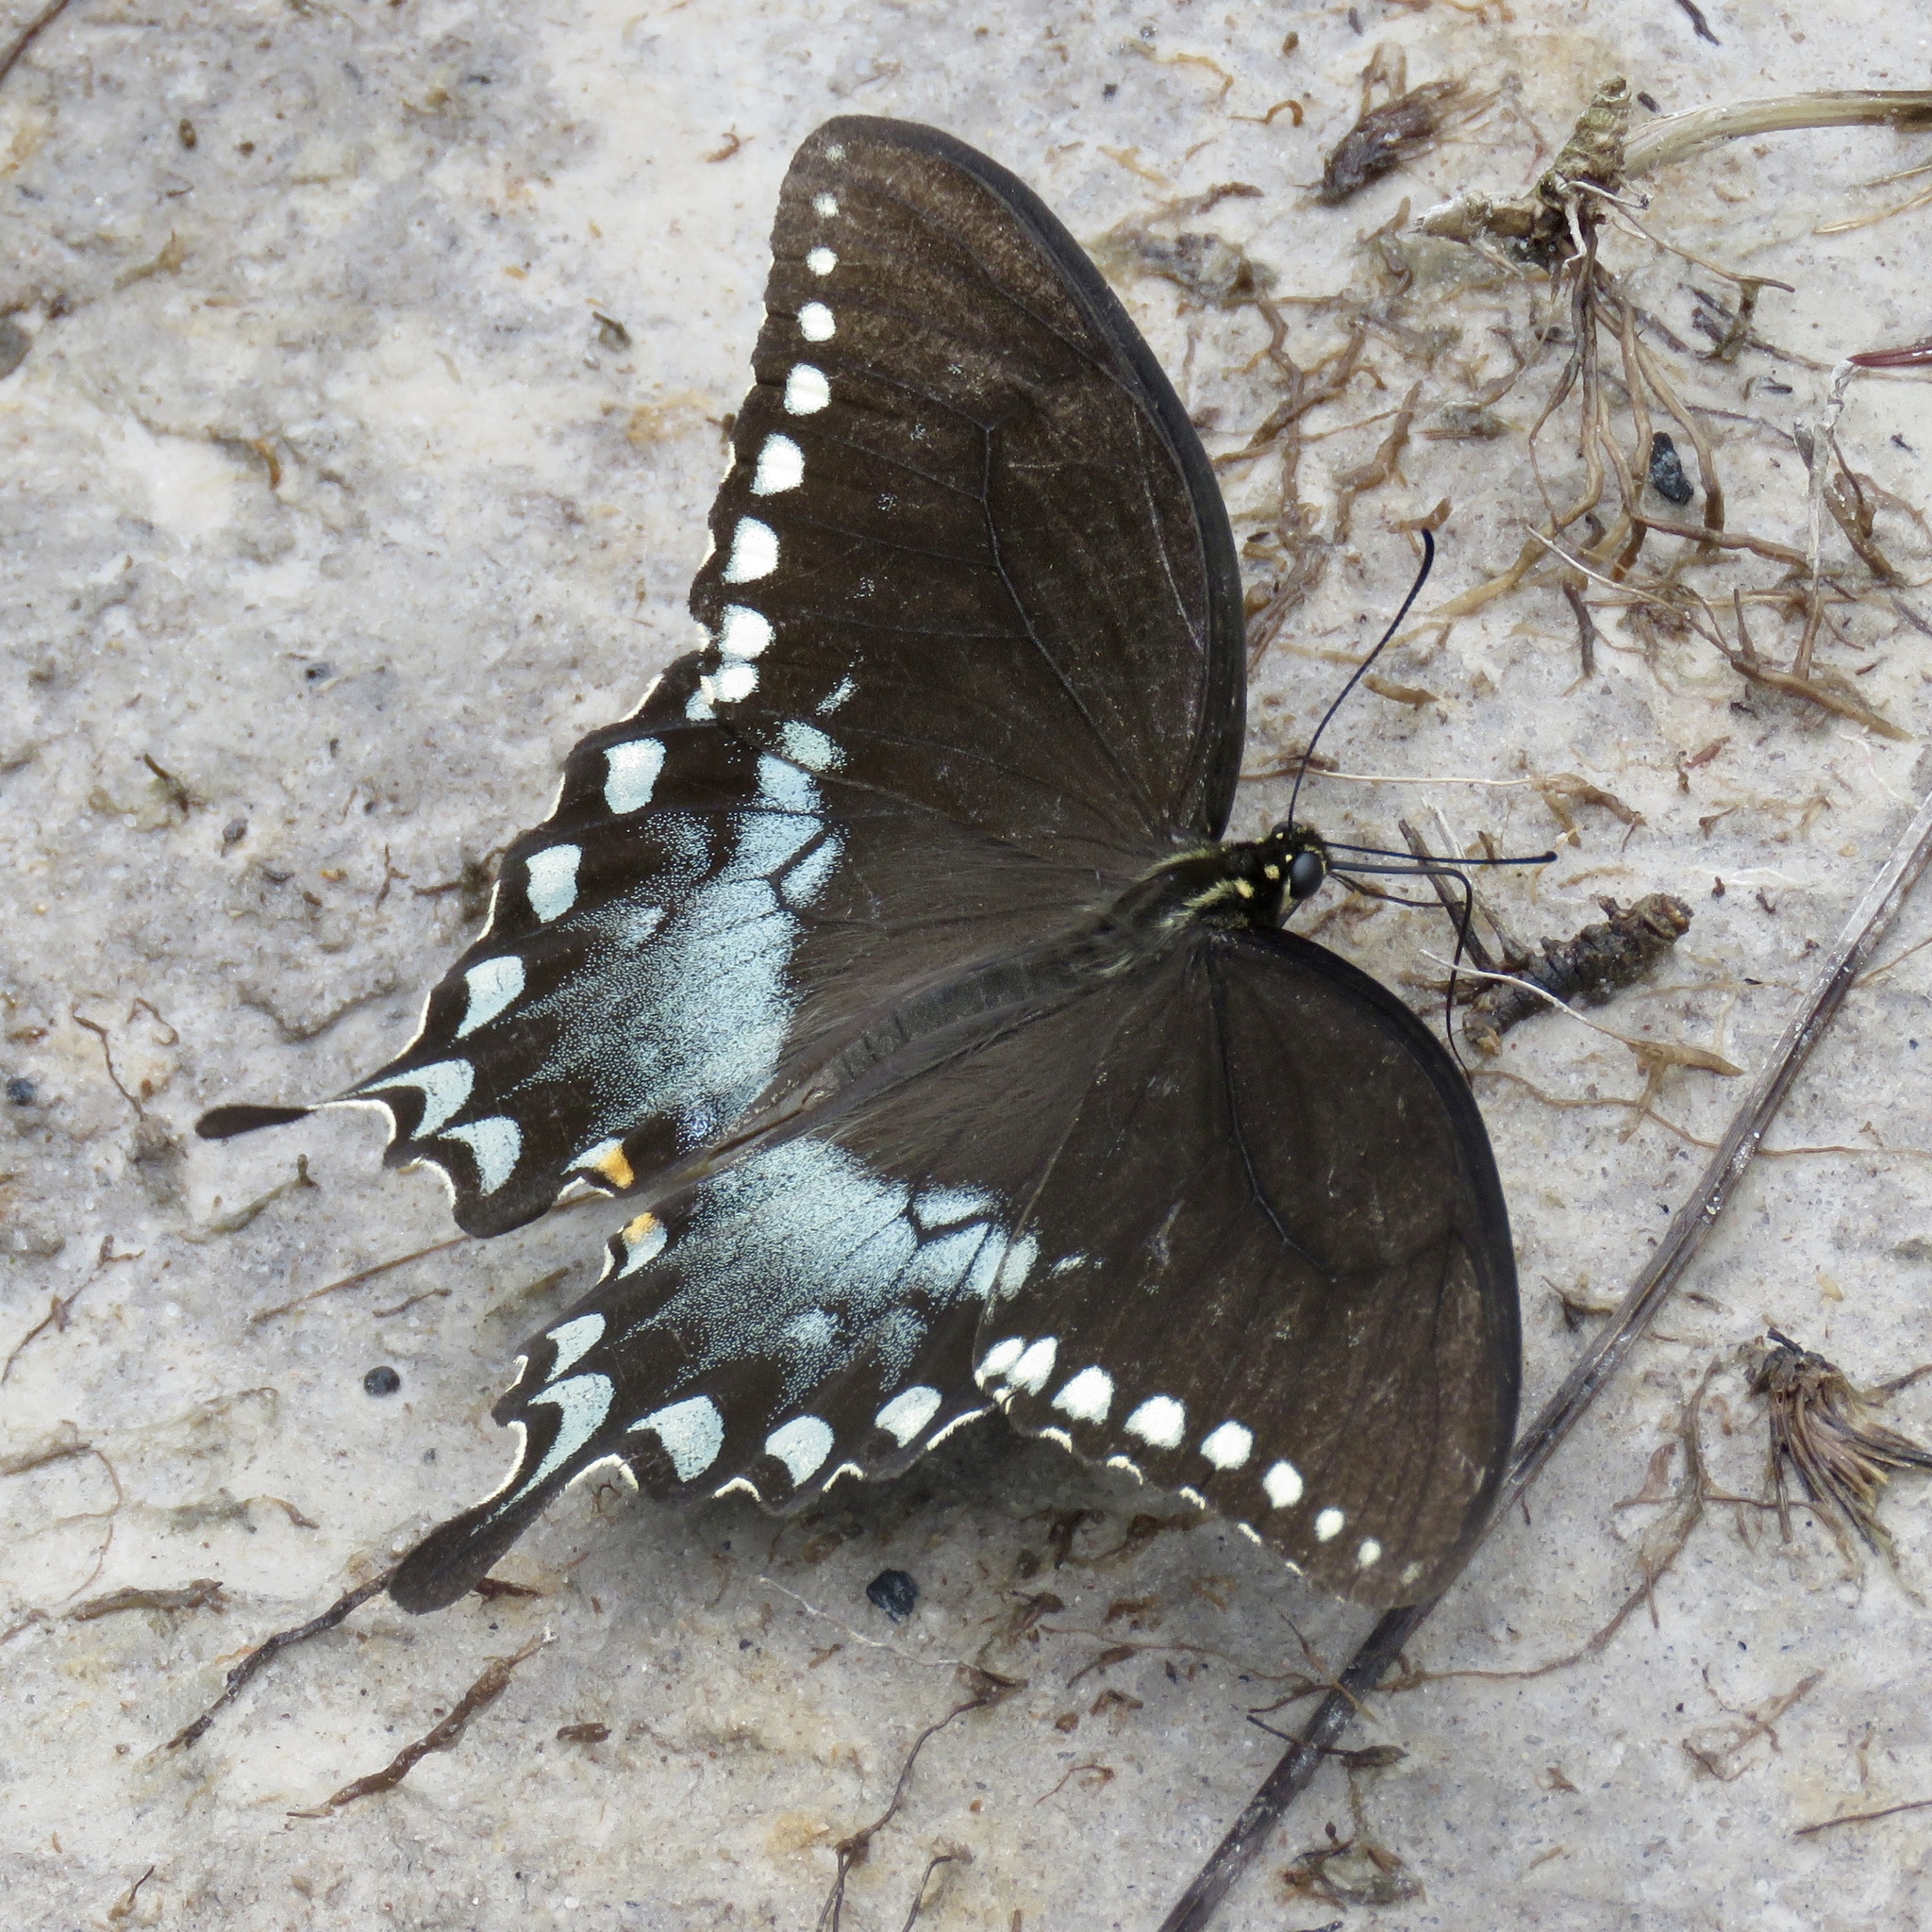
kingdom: Animalia
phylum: Arthropoda
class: Insecta
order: Lepidoptera
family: Papilionidae
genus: Papilio
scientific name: Papilio troilus
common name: Spicebush swallowtail
